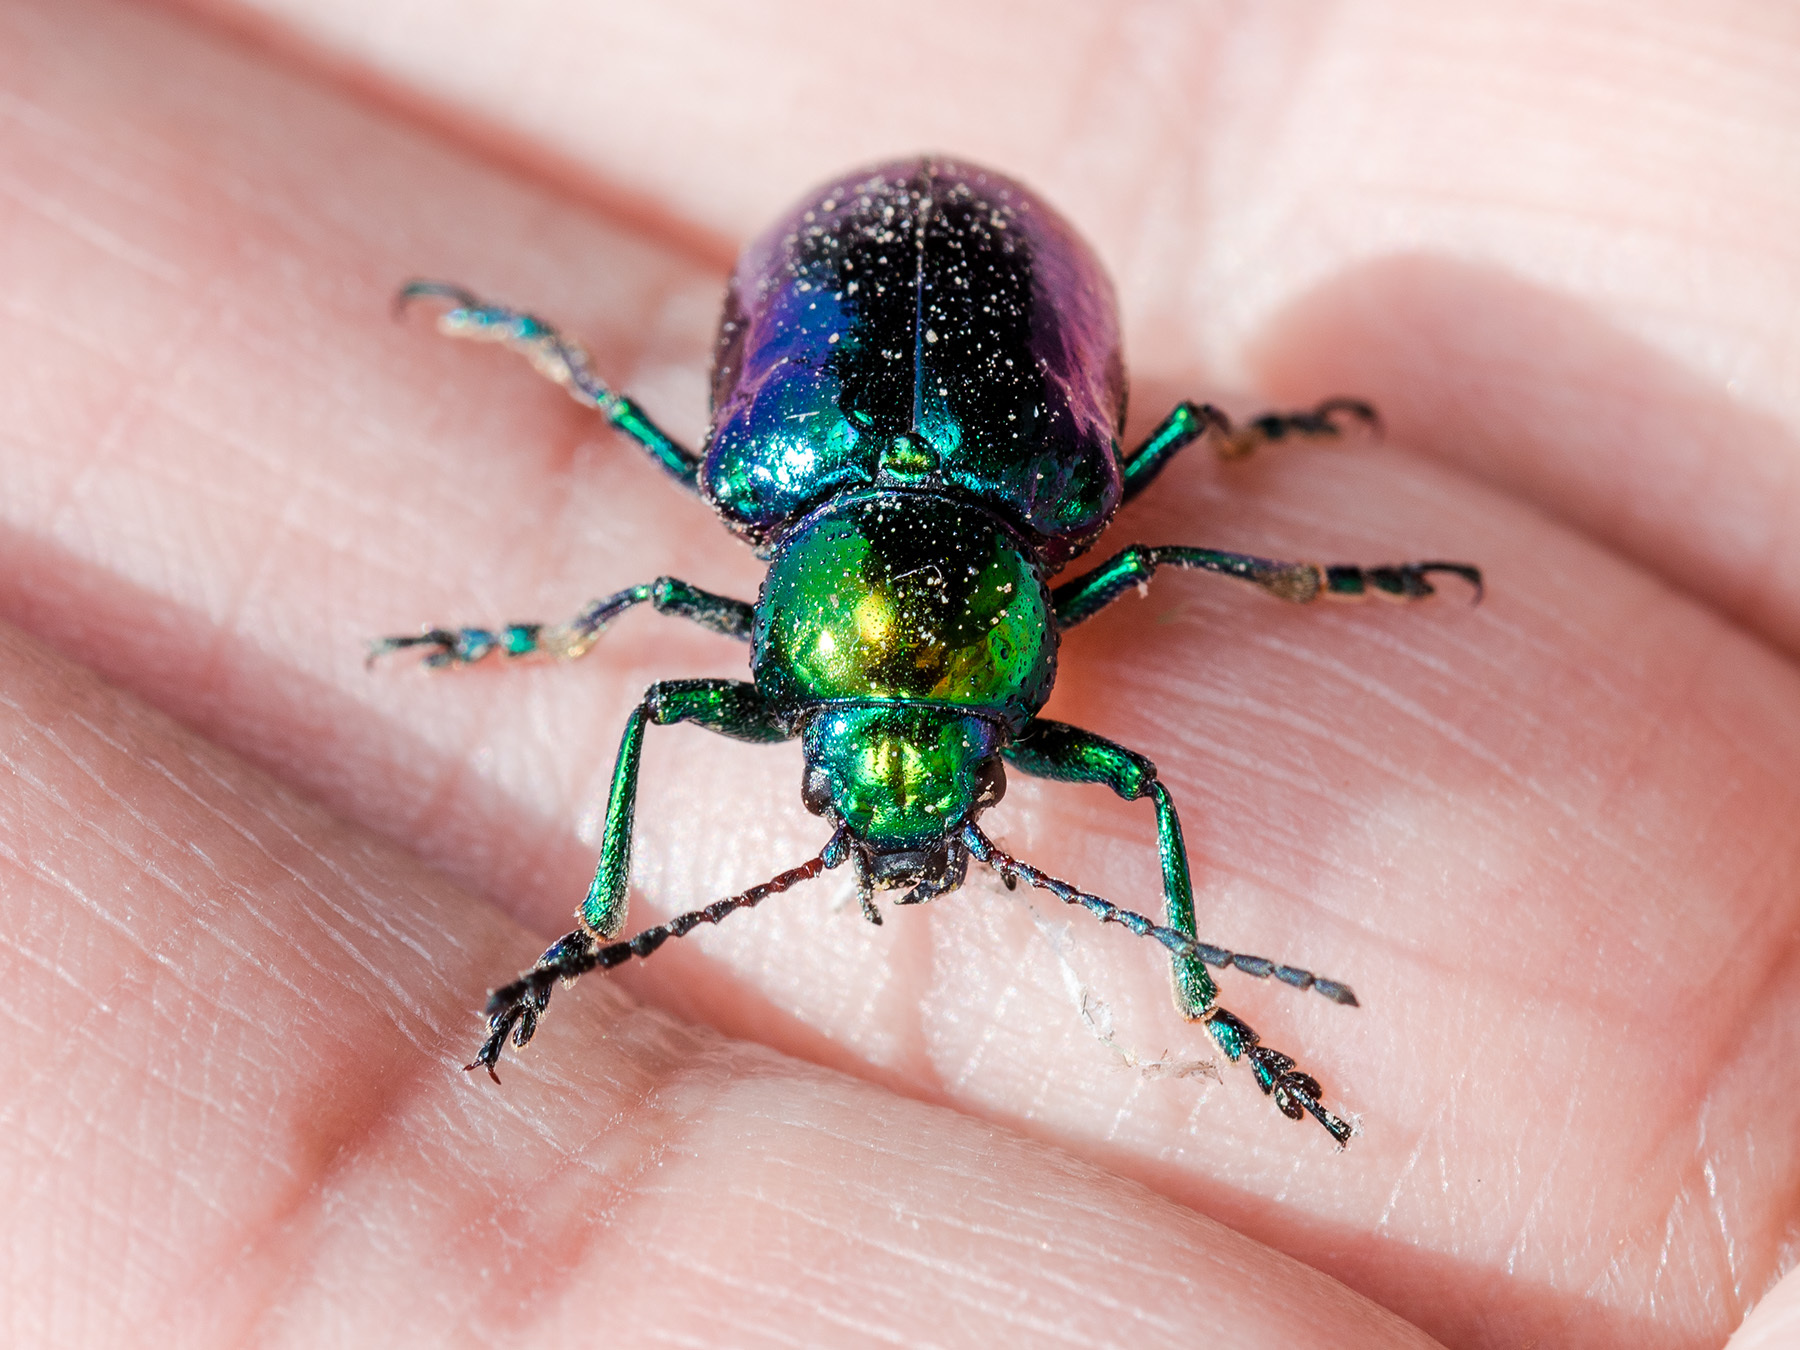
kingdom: Animalia
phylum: Arthropoda
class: Insecta
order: Coleoptera
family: Chrysomelidae
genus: Chrysochares
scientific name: Chrysochares
